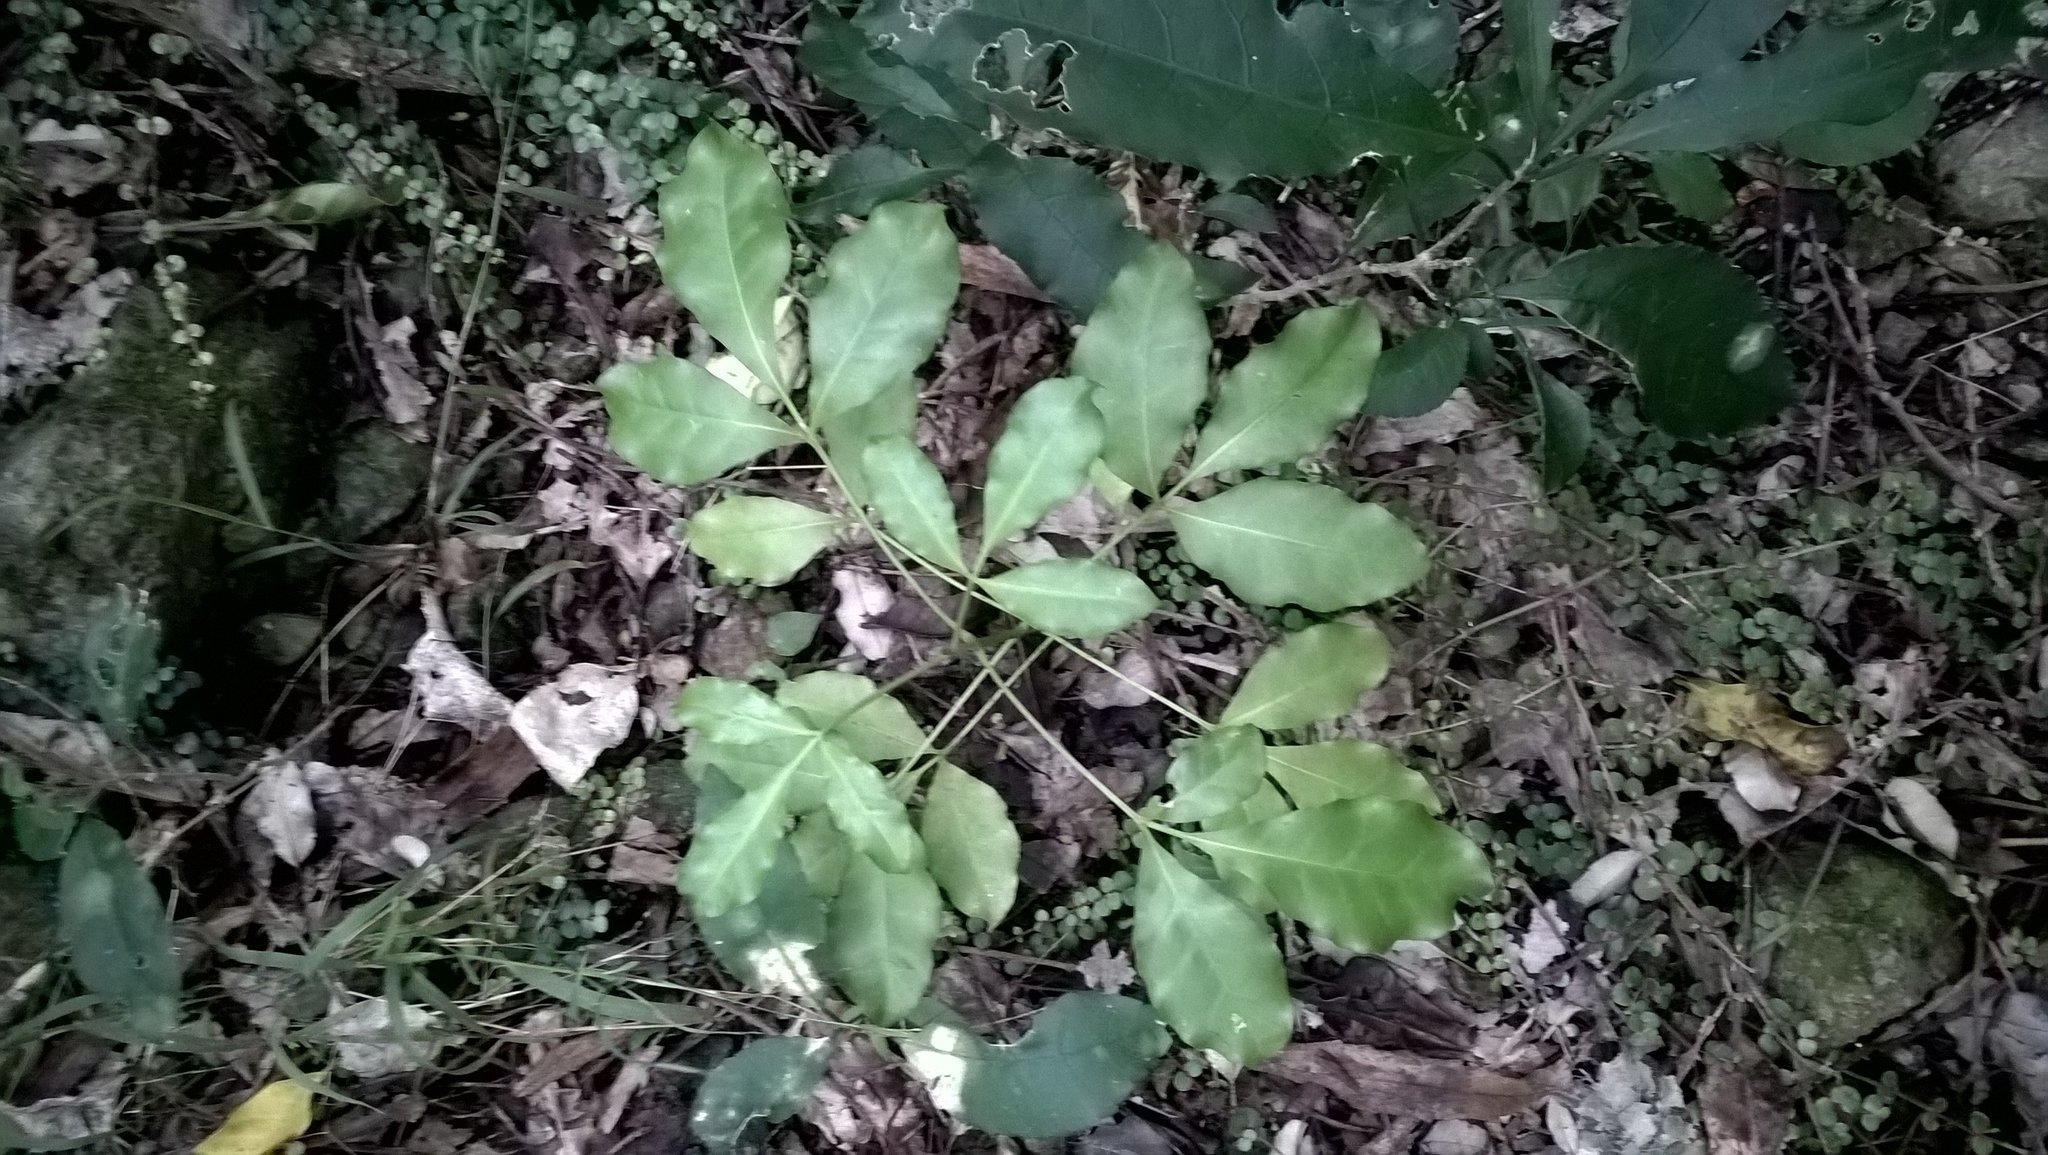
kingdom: Plantae
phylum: Tracheophyta
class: Magnoliopsida
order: Sapindales
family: Rutaceae
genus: Melicope
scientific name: Melicope ternata
